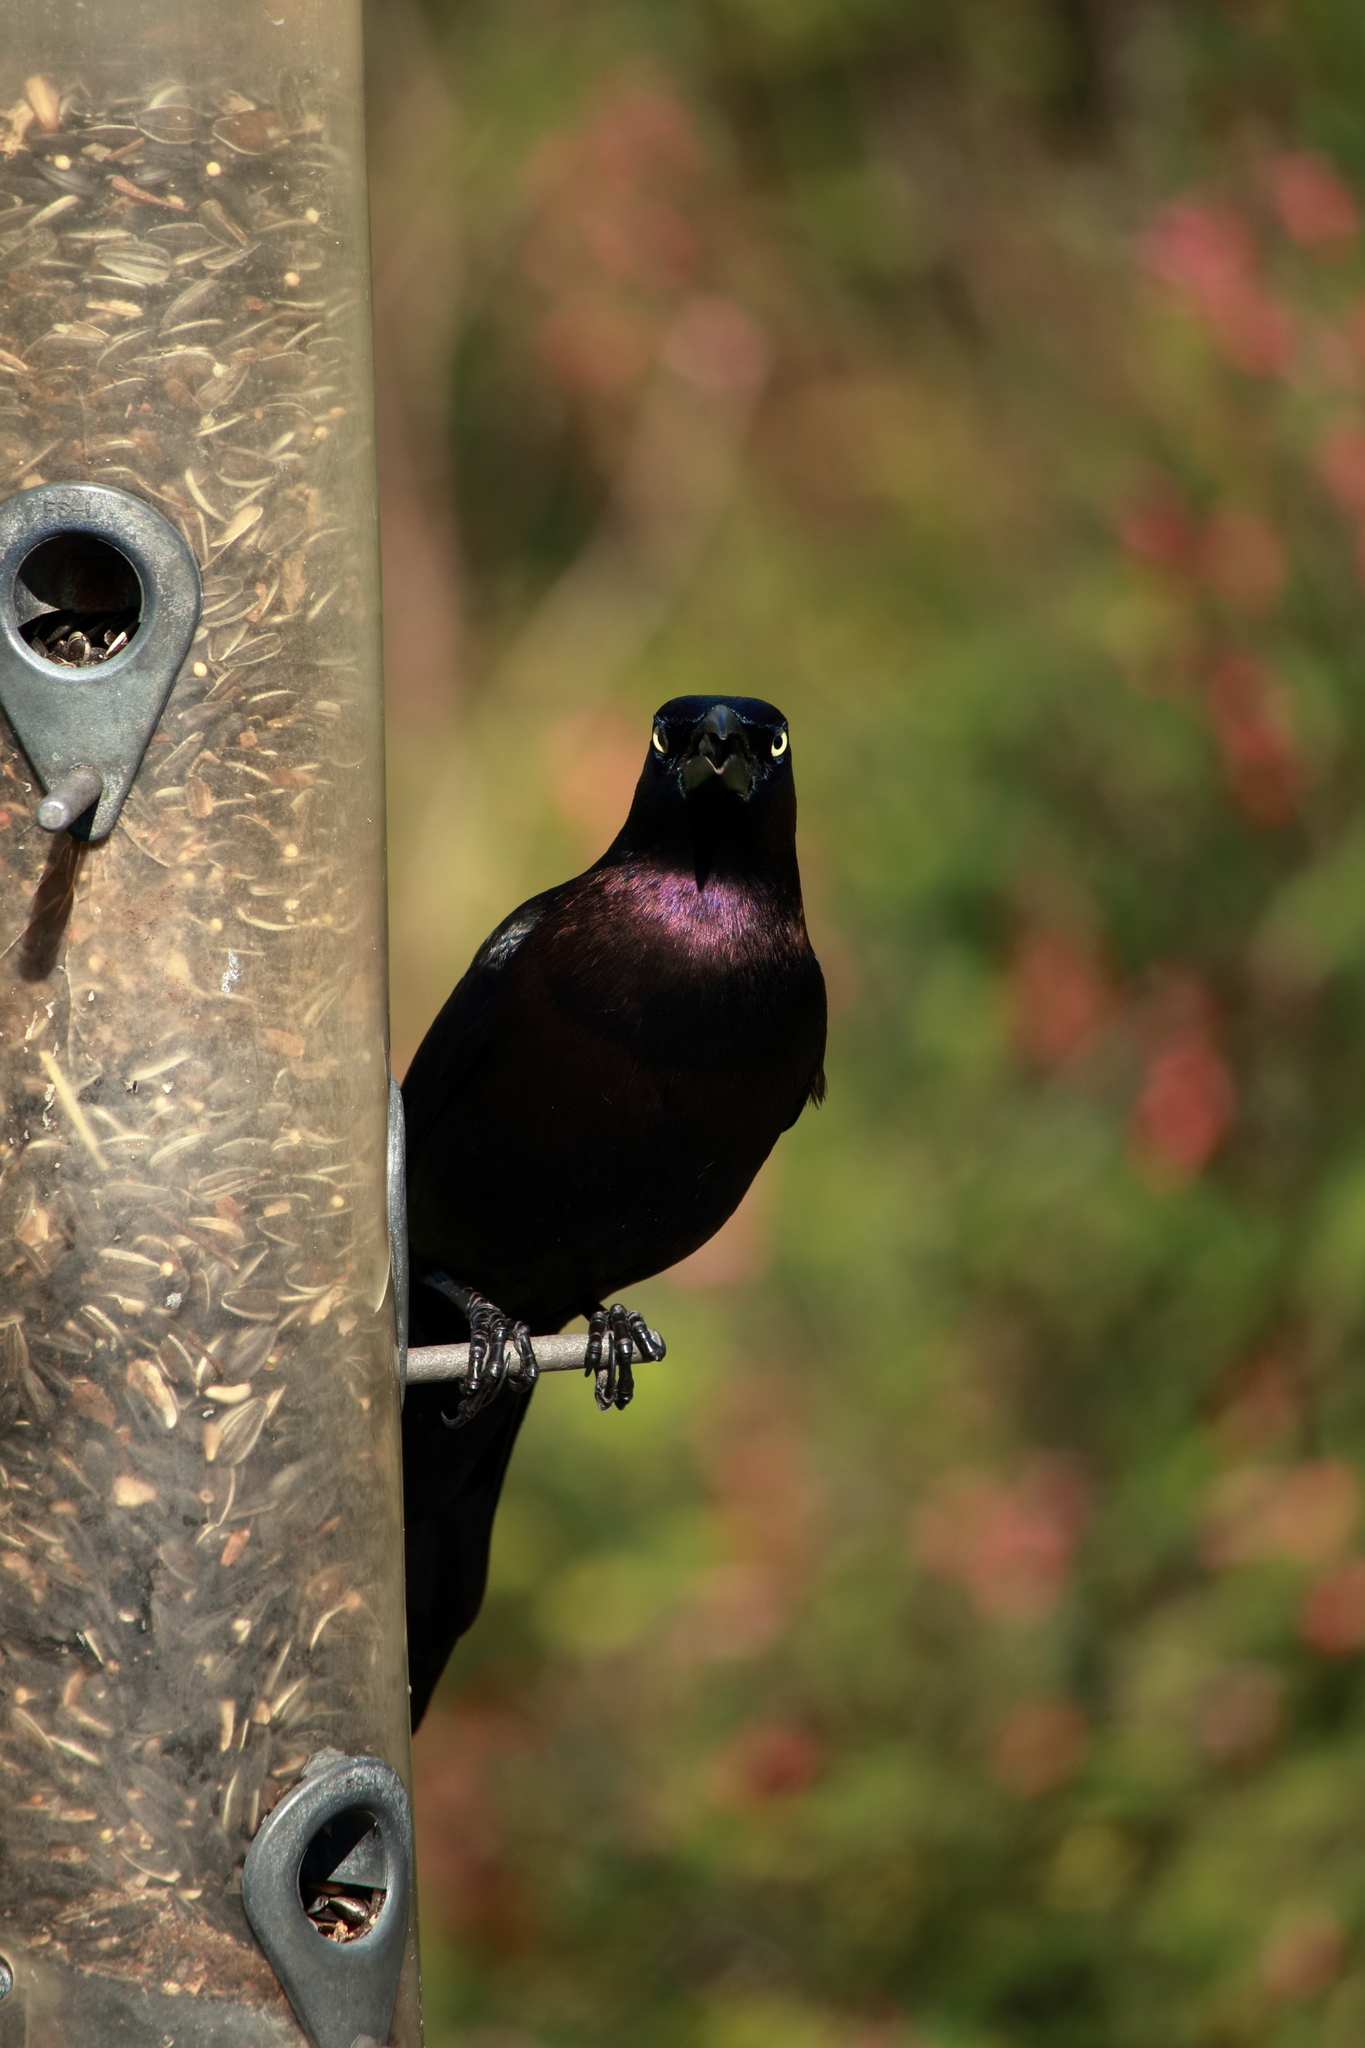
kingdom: Animalia
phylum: Chordata
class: Aves
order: Passeriformes
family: Icteridae
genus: Quiscalus
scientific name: Quiscalus quiscula
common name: Common grackle
